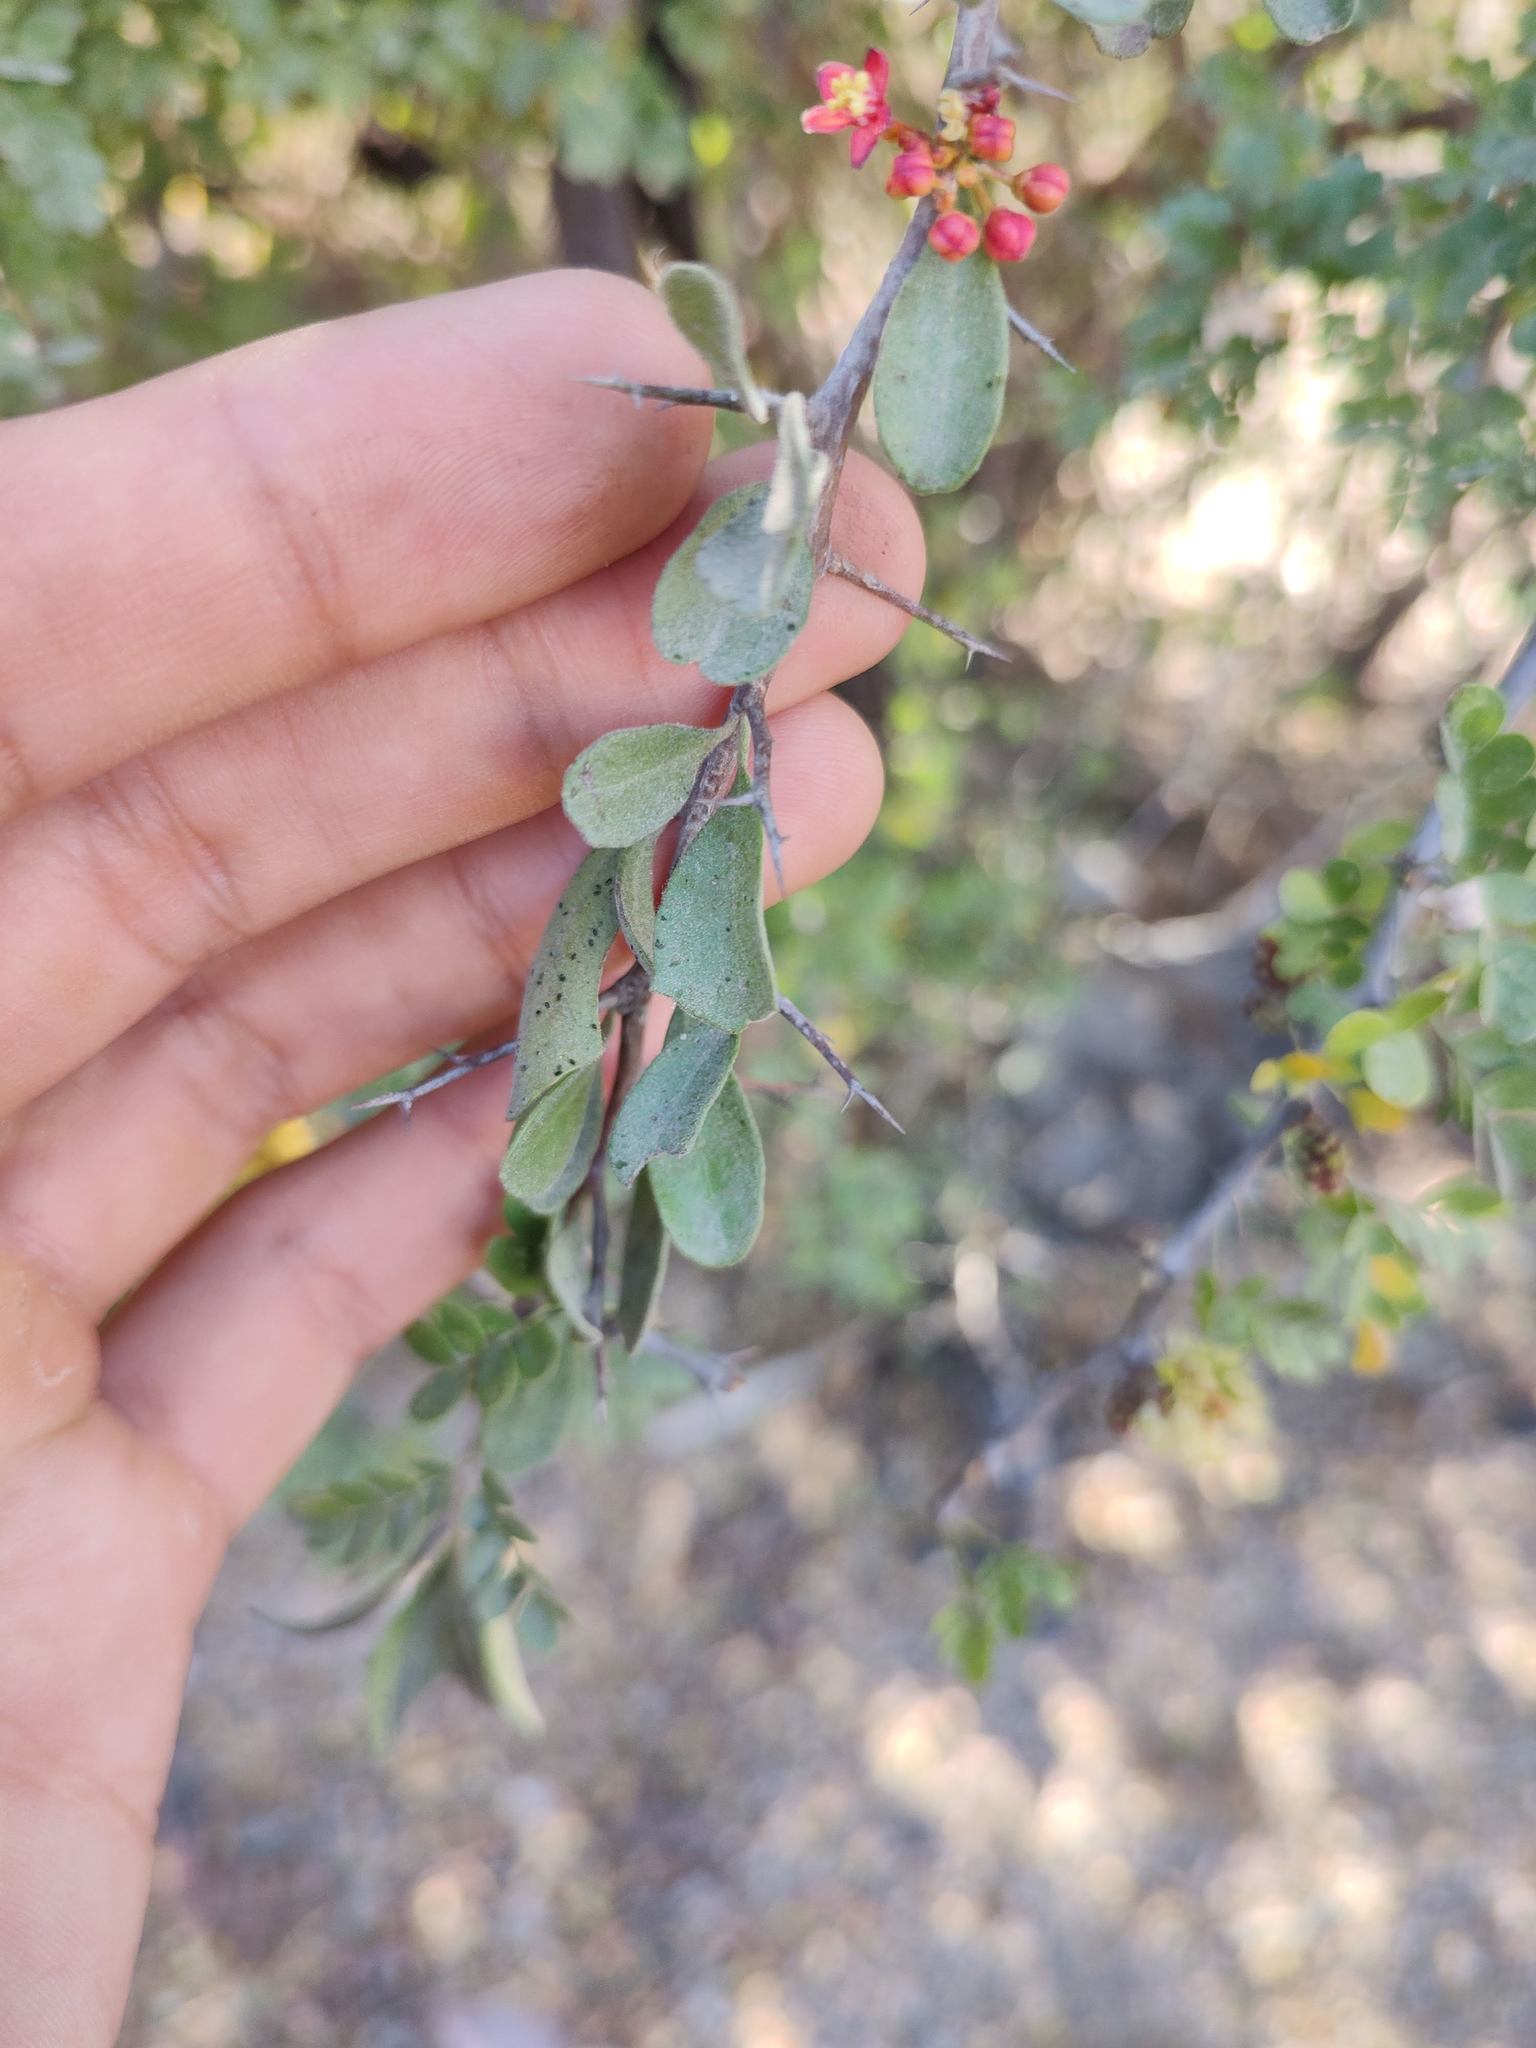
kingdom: Plantae
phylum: Tracheophyta
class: Magnoliopsida
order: Sapindales
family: Simaroubaceae
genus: Castela
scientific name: Castela peninsularis
